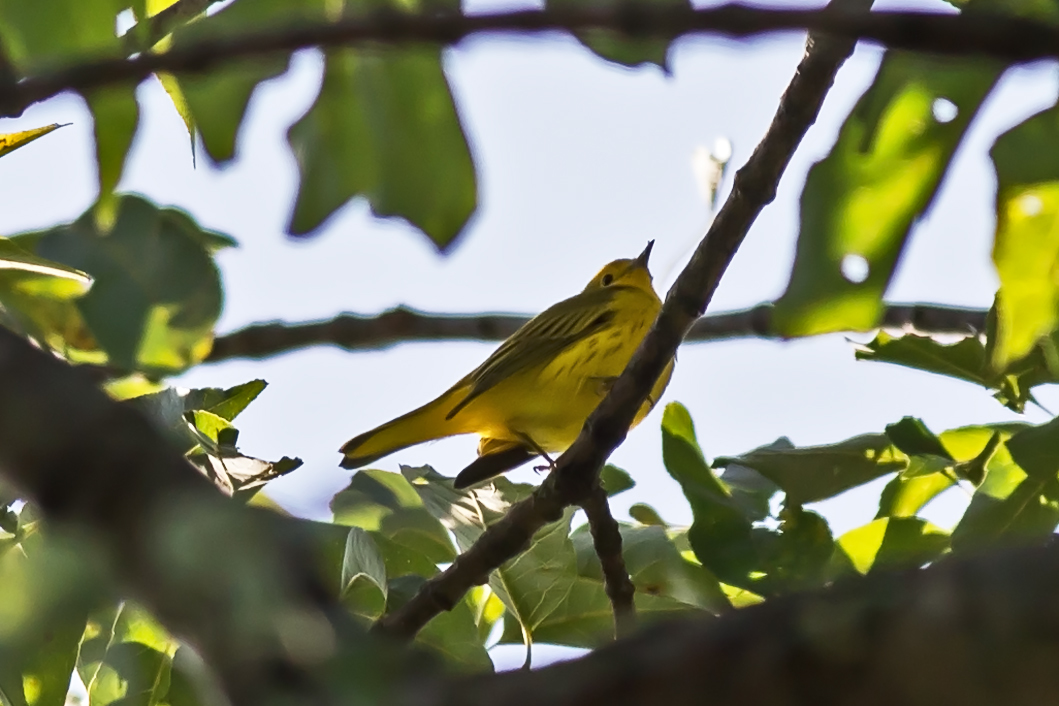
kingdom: Animalia
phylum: Chordata
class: Aves
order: Passeriformes
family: Parulidae
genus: Setophaga
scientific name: Setophaga petechia
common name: Yellow warbler
